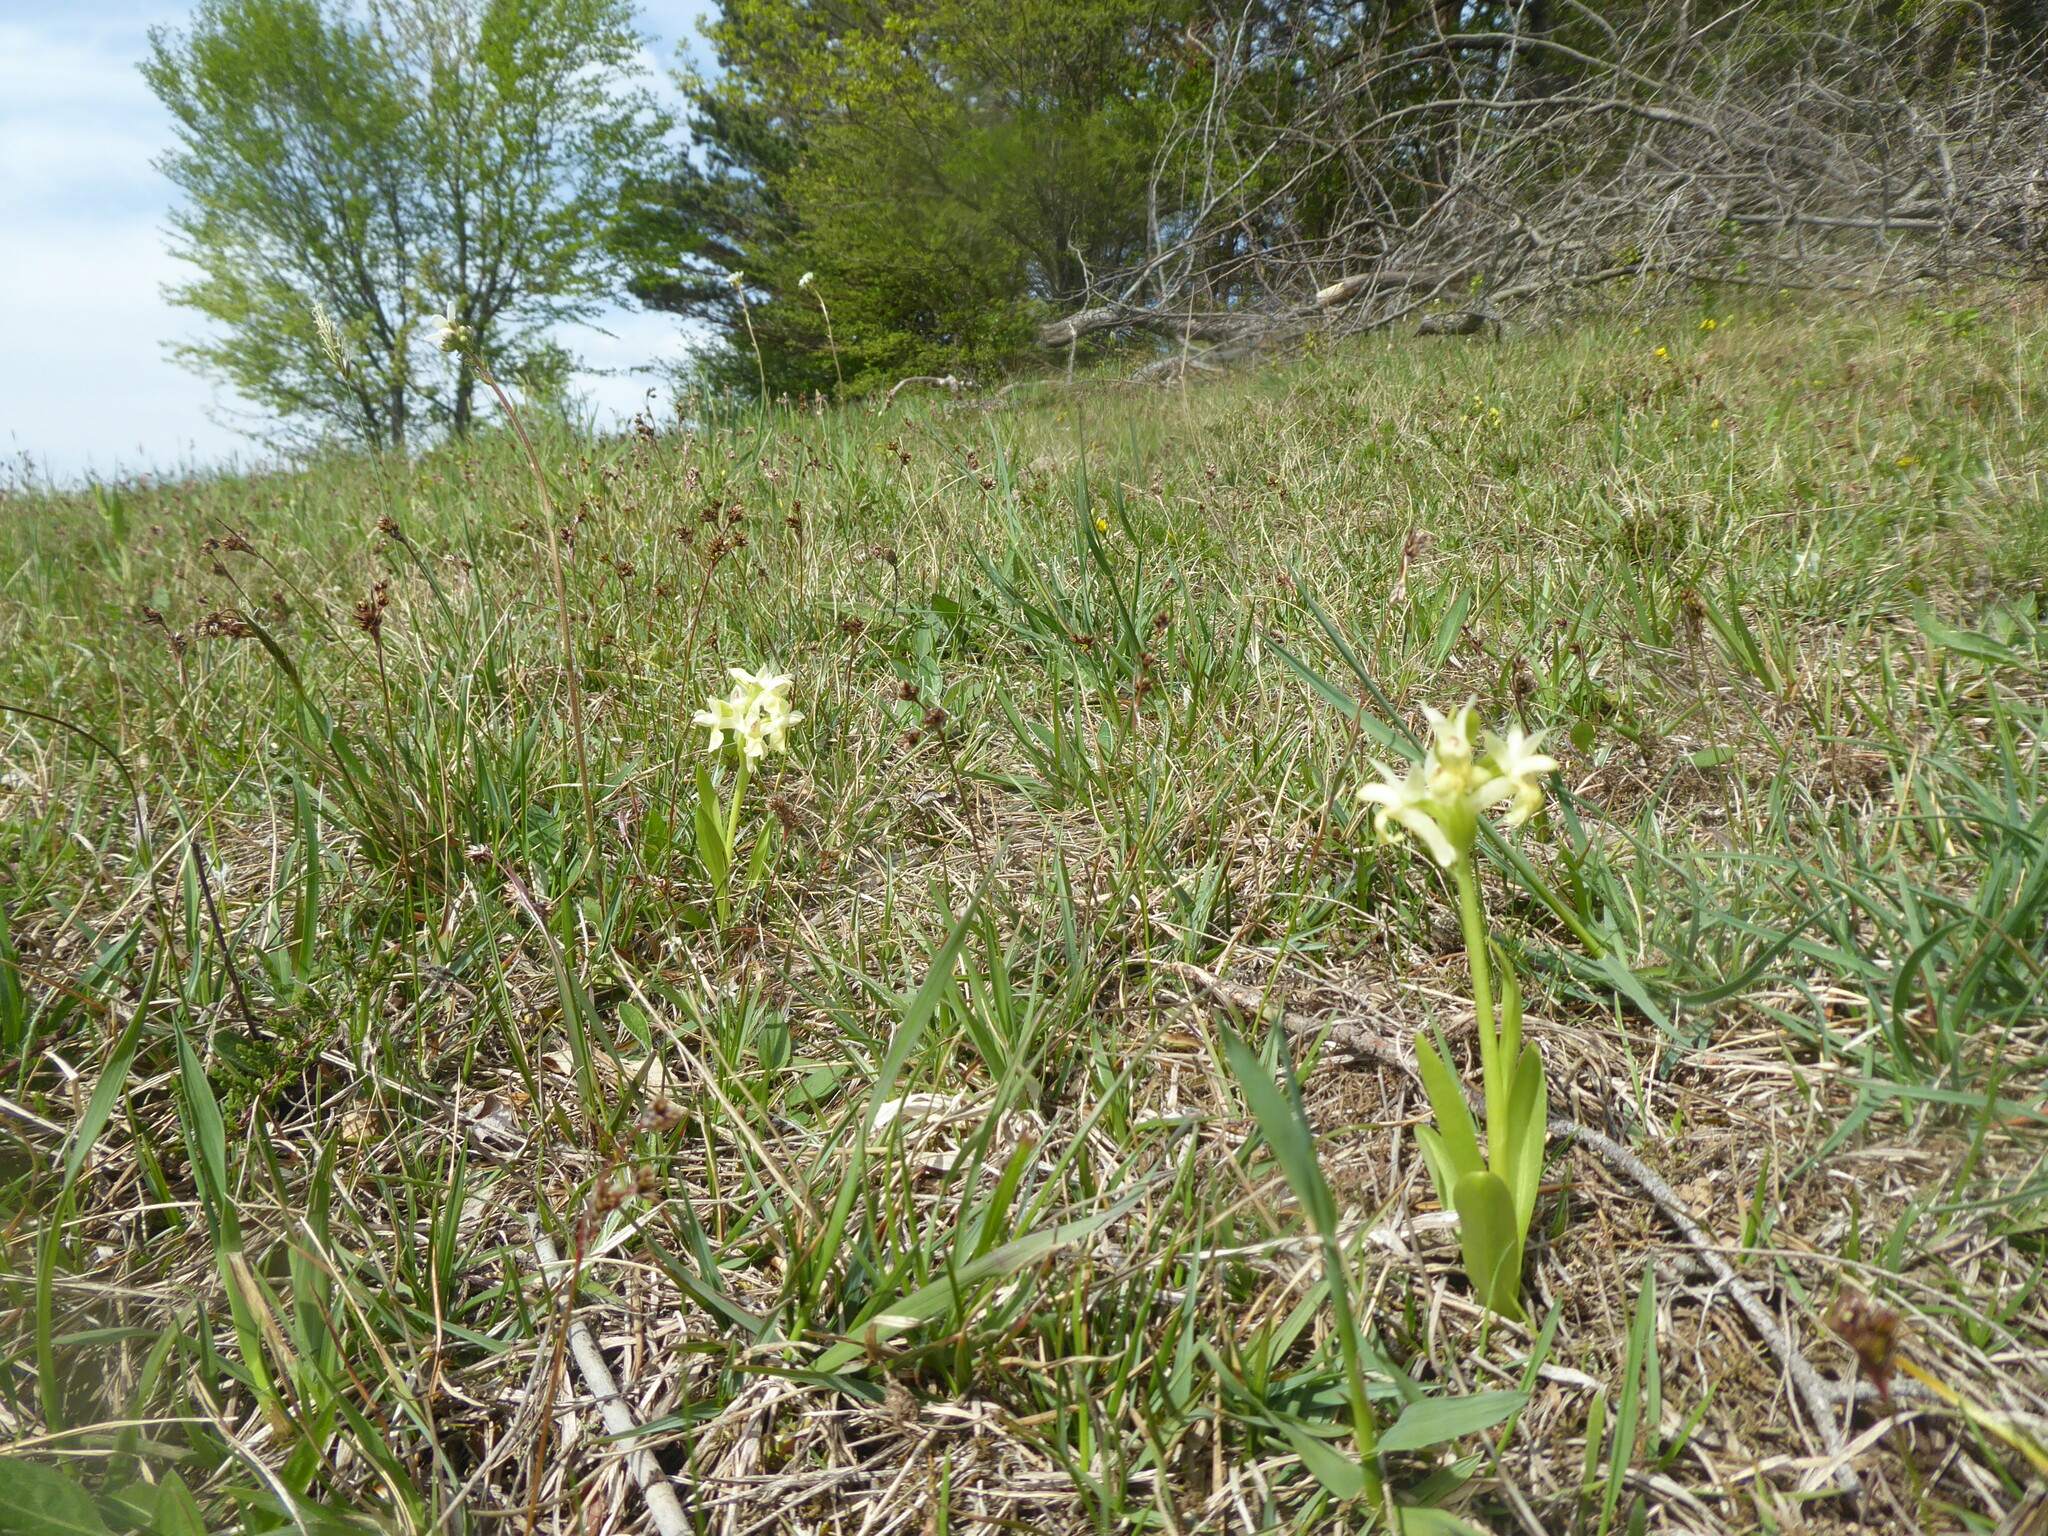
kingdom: Plantae
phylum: Tracheophyta
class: Liliopsida
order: Asparagales
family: Orchidaceae
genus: Dactylorhiza
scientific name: Dactylorhiza sambucina
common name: Elder-flowered orchid
